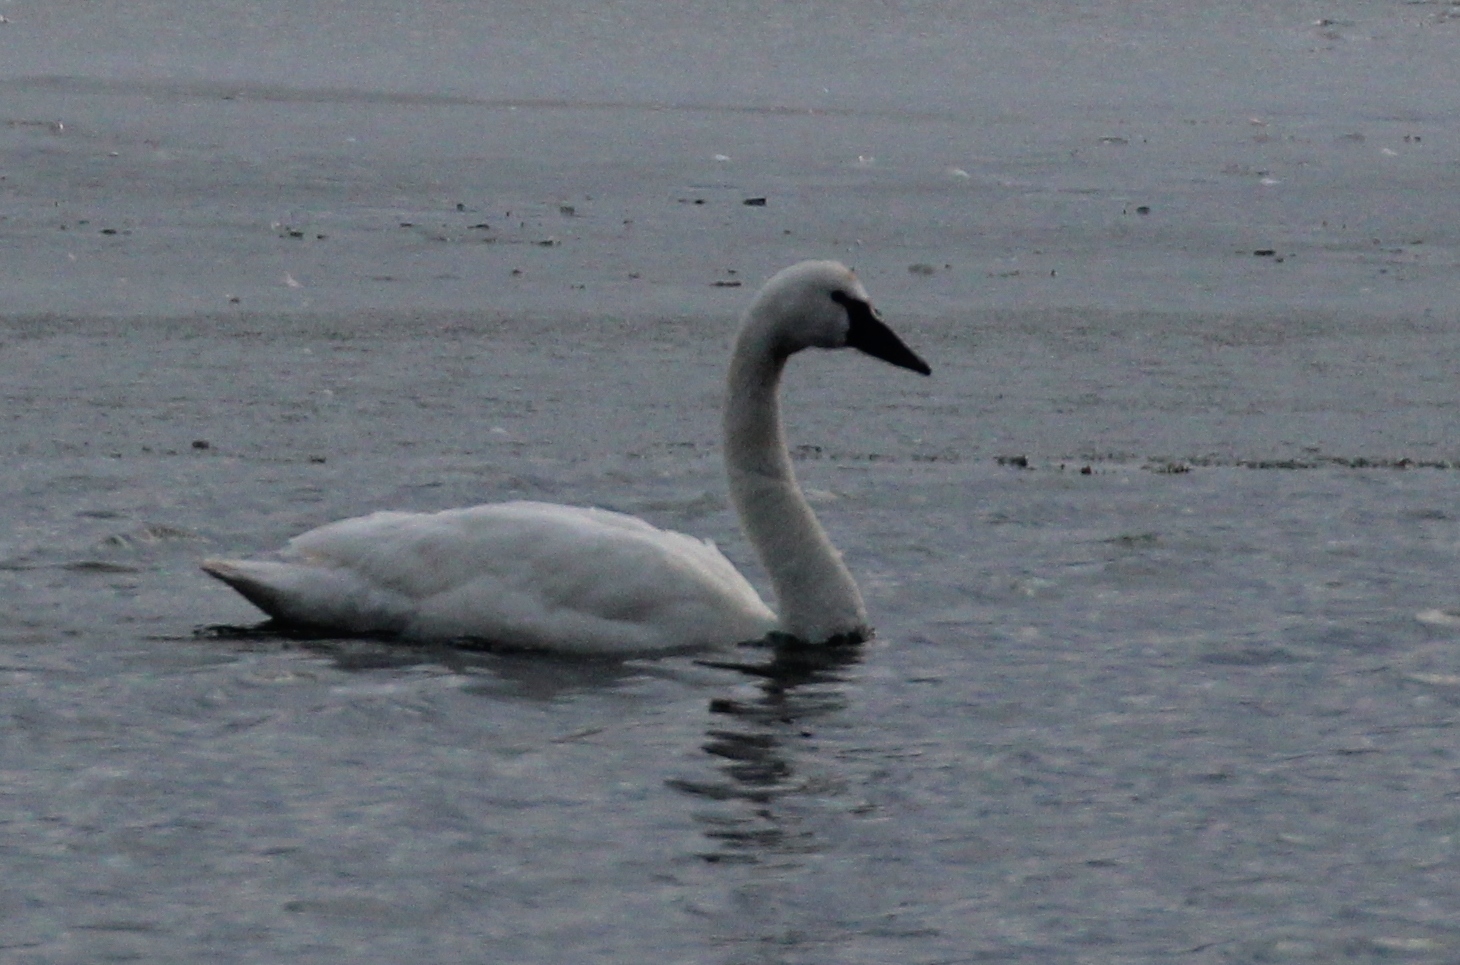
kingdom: Animalia
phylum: Chordata
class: Aves
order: Anseriformes
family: Anatidae
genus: Cygnus
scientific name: Cygnus columbianus
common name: Tundra swan
